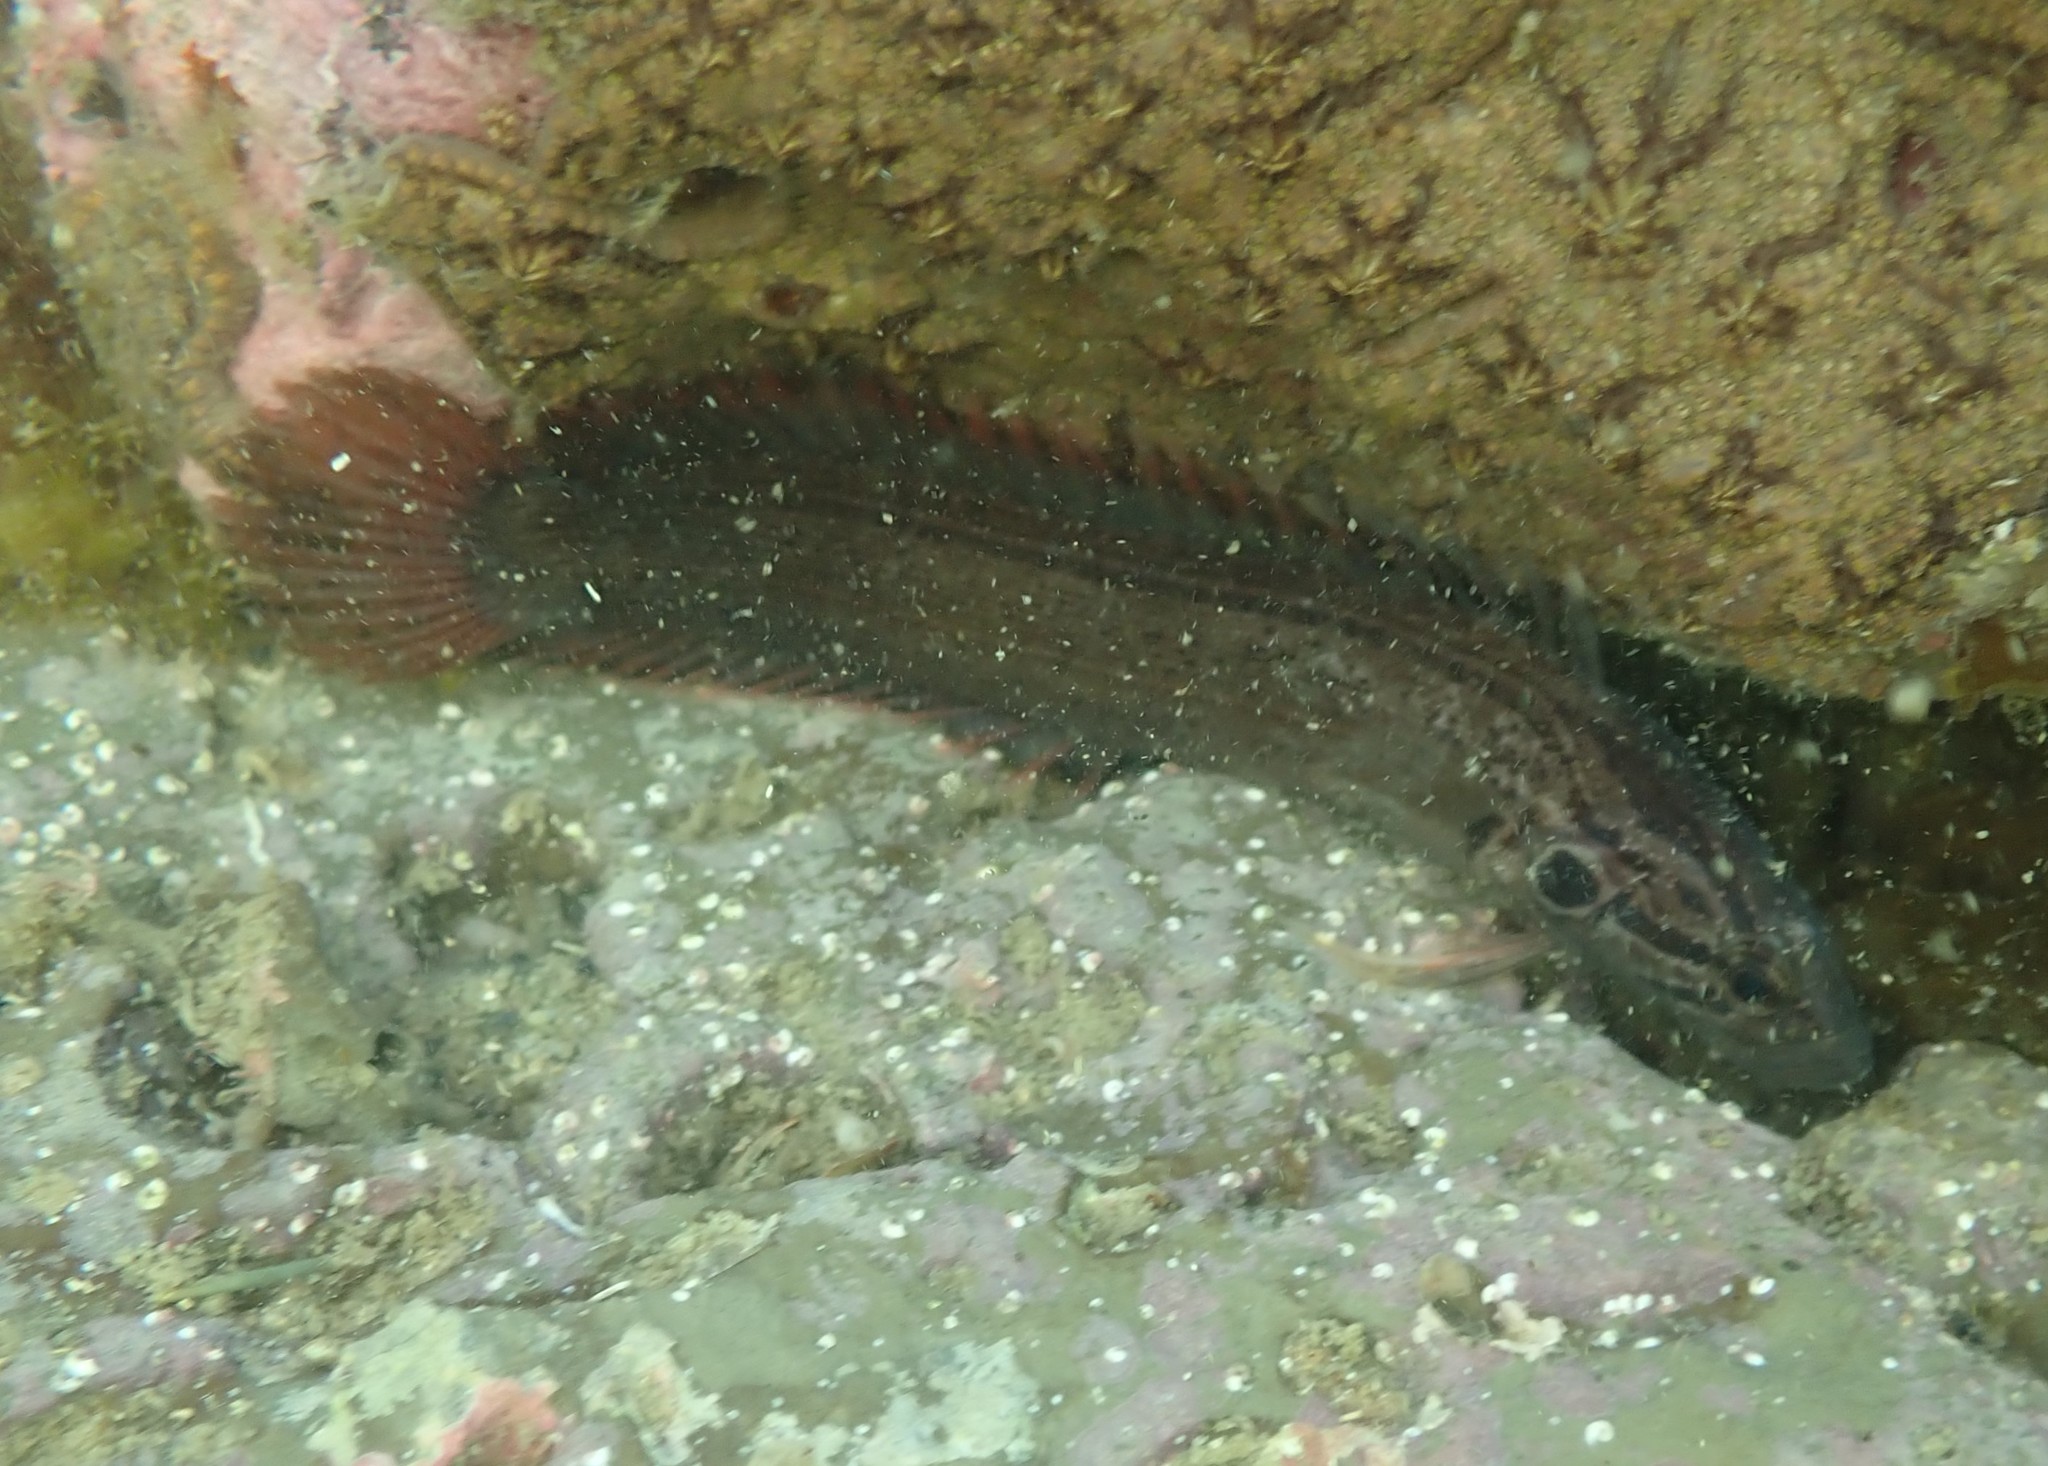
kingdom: Animalia
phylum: Chordata
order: Perciformes
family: Plesiopidae
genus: Acanthoclinus
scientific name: Acanthoclinus littoreus
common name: Rockfish
